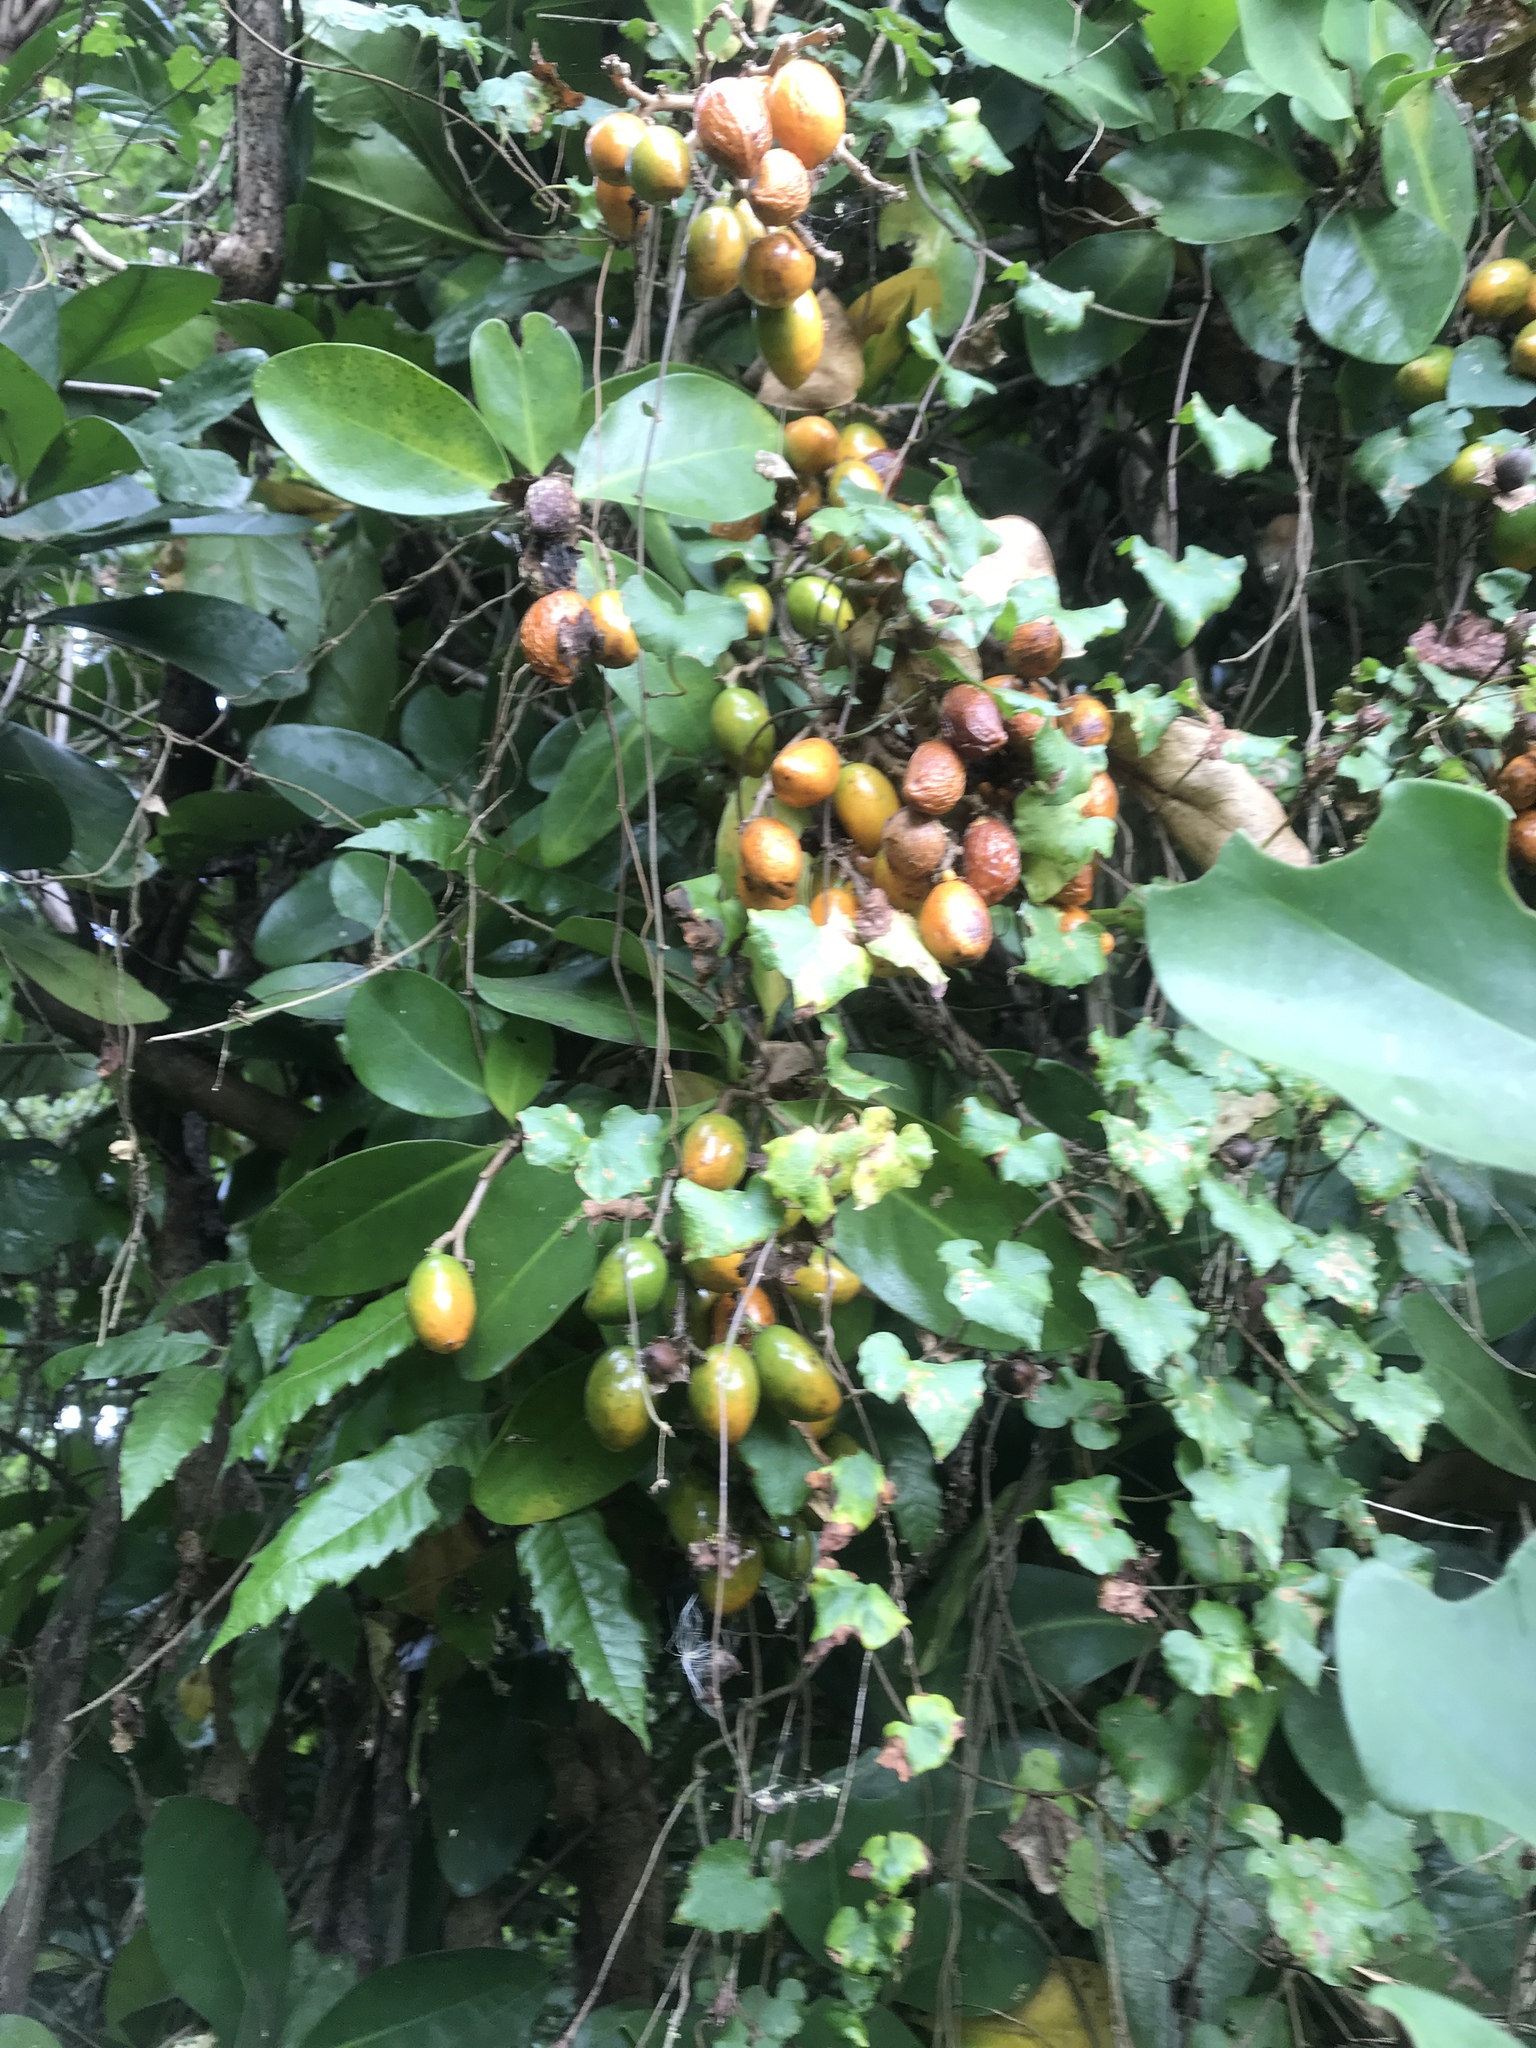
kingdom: Plantae
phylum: Tracheophyta
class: Magnoliopsida
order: Cucurbitales
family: Corynocarpaceae
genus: Corynocarpus
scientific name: Corynocarpus laevigatus
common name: New zealand laurel
